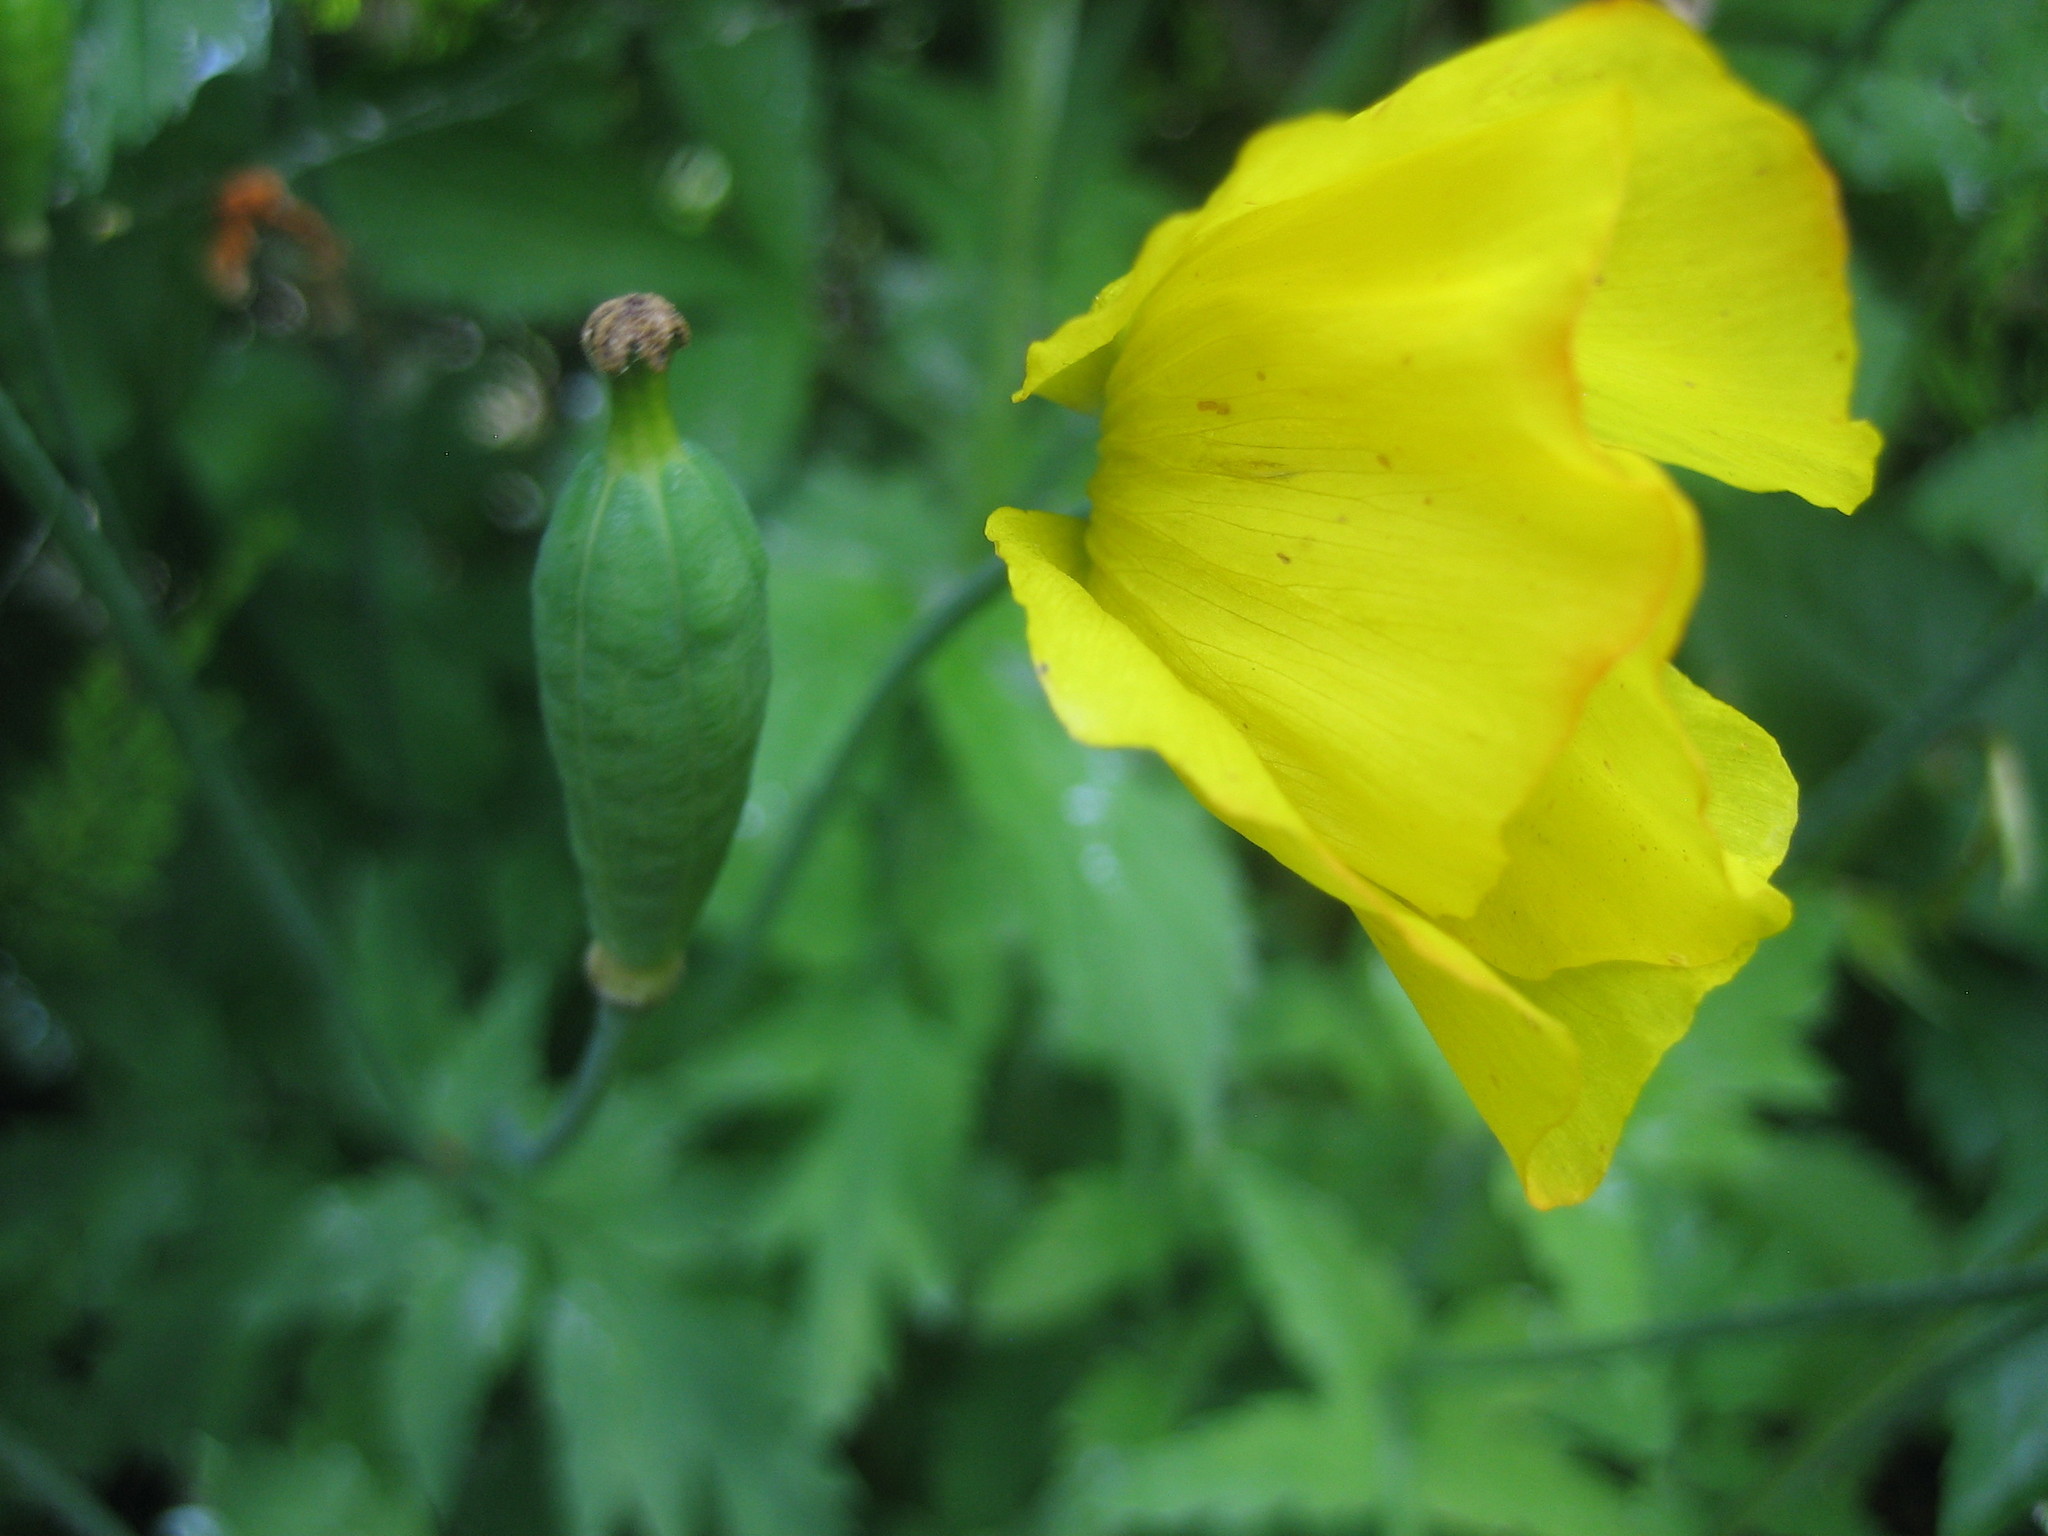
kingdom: Plantae
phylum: Tracheophyta
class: Magnoliopsida
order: Ranunculales
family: Papaveraceae
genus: Papaver
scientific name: Papaver cambricum
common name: Poppy
